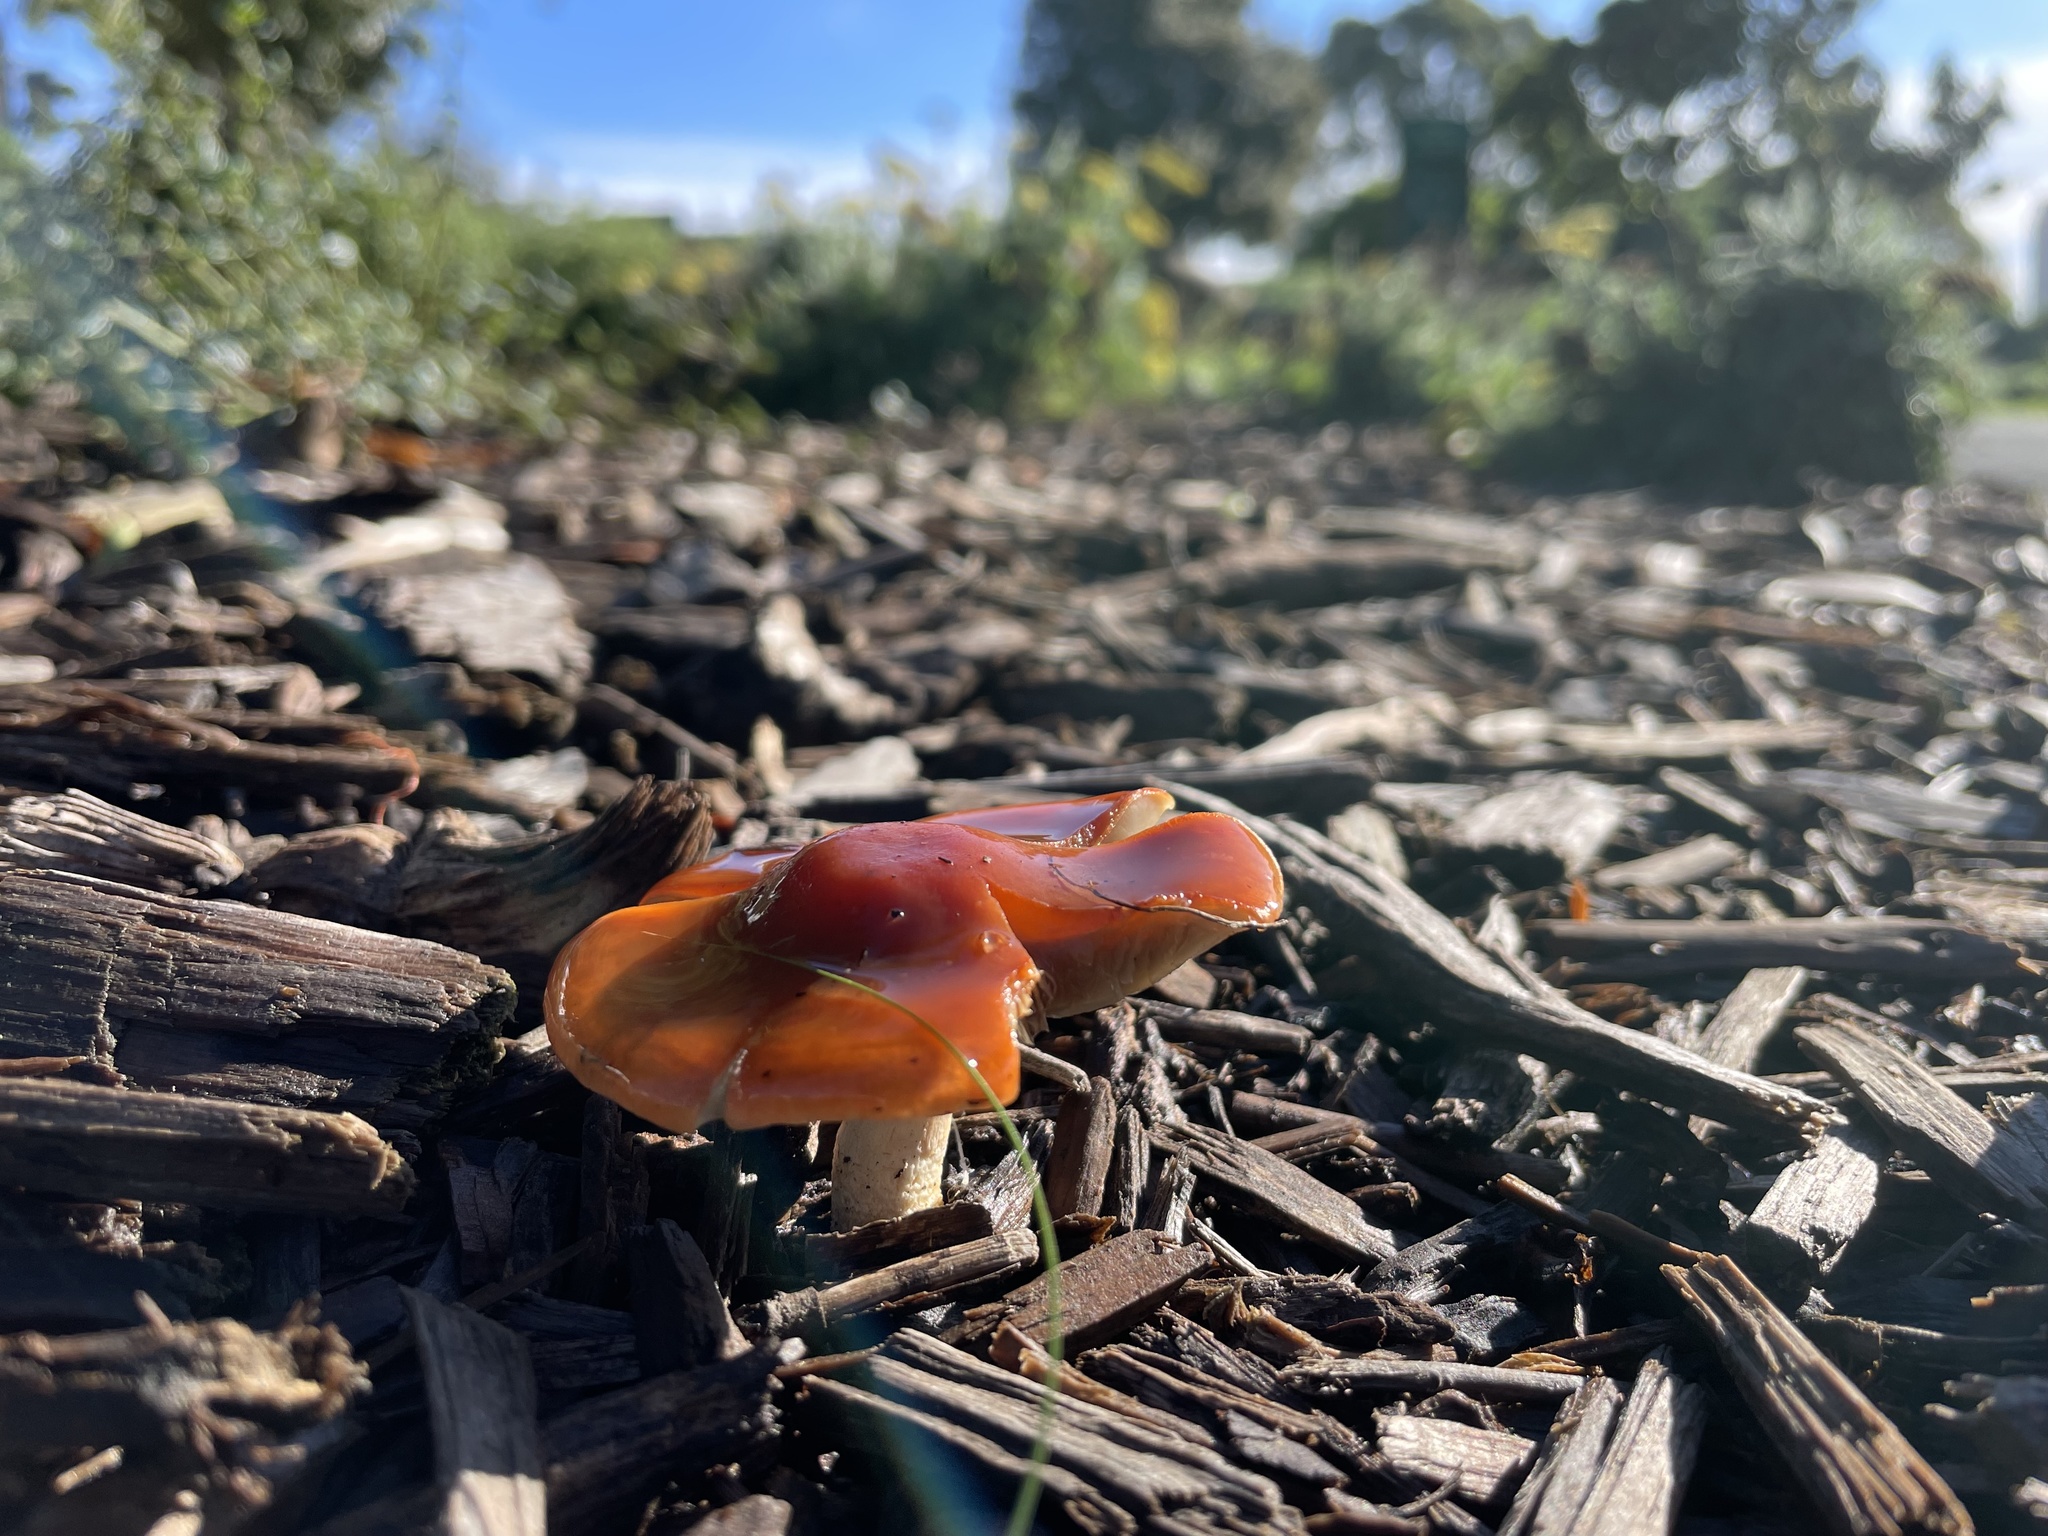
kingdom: Fungi
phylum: Basidiomycota
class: Agaricomycetes
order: Agaricales
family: Strophariaceae
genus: Leratiomyces
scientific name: Leratiomyces ceres
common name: Redlead roundhead
